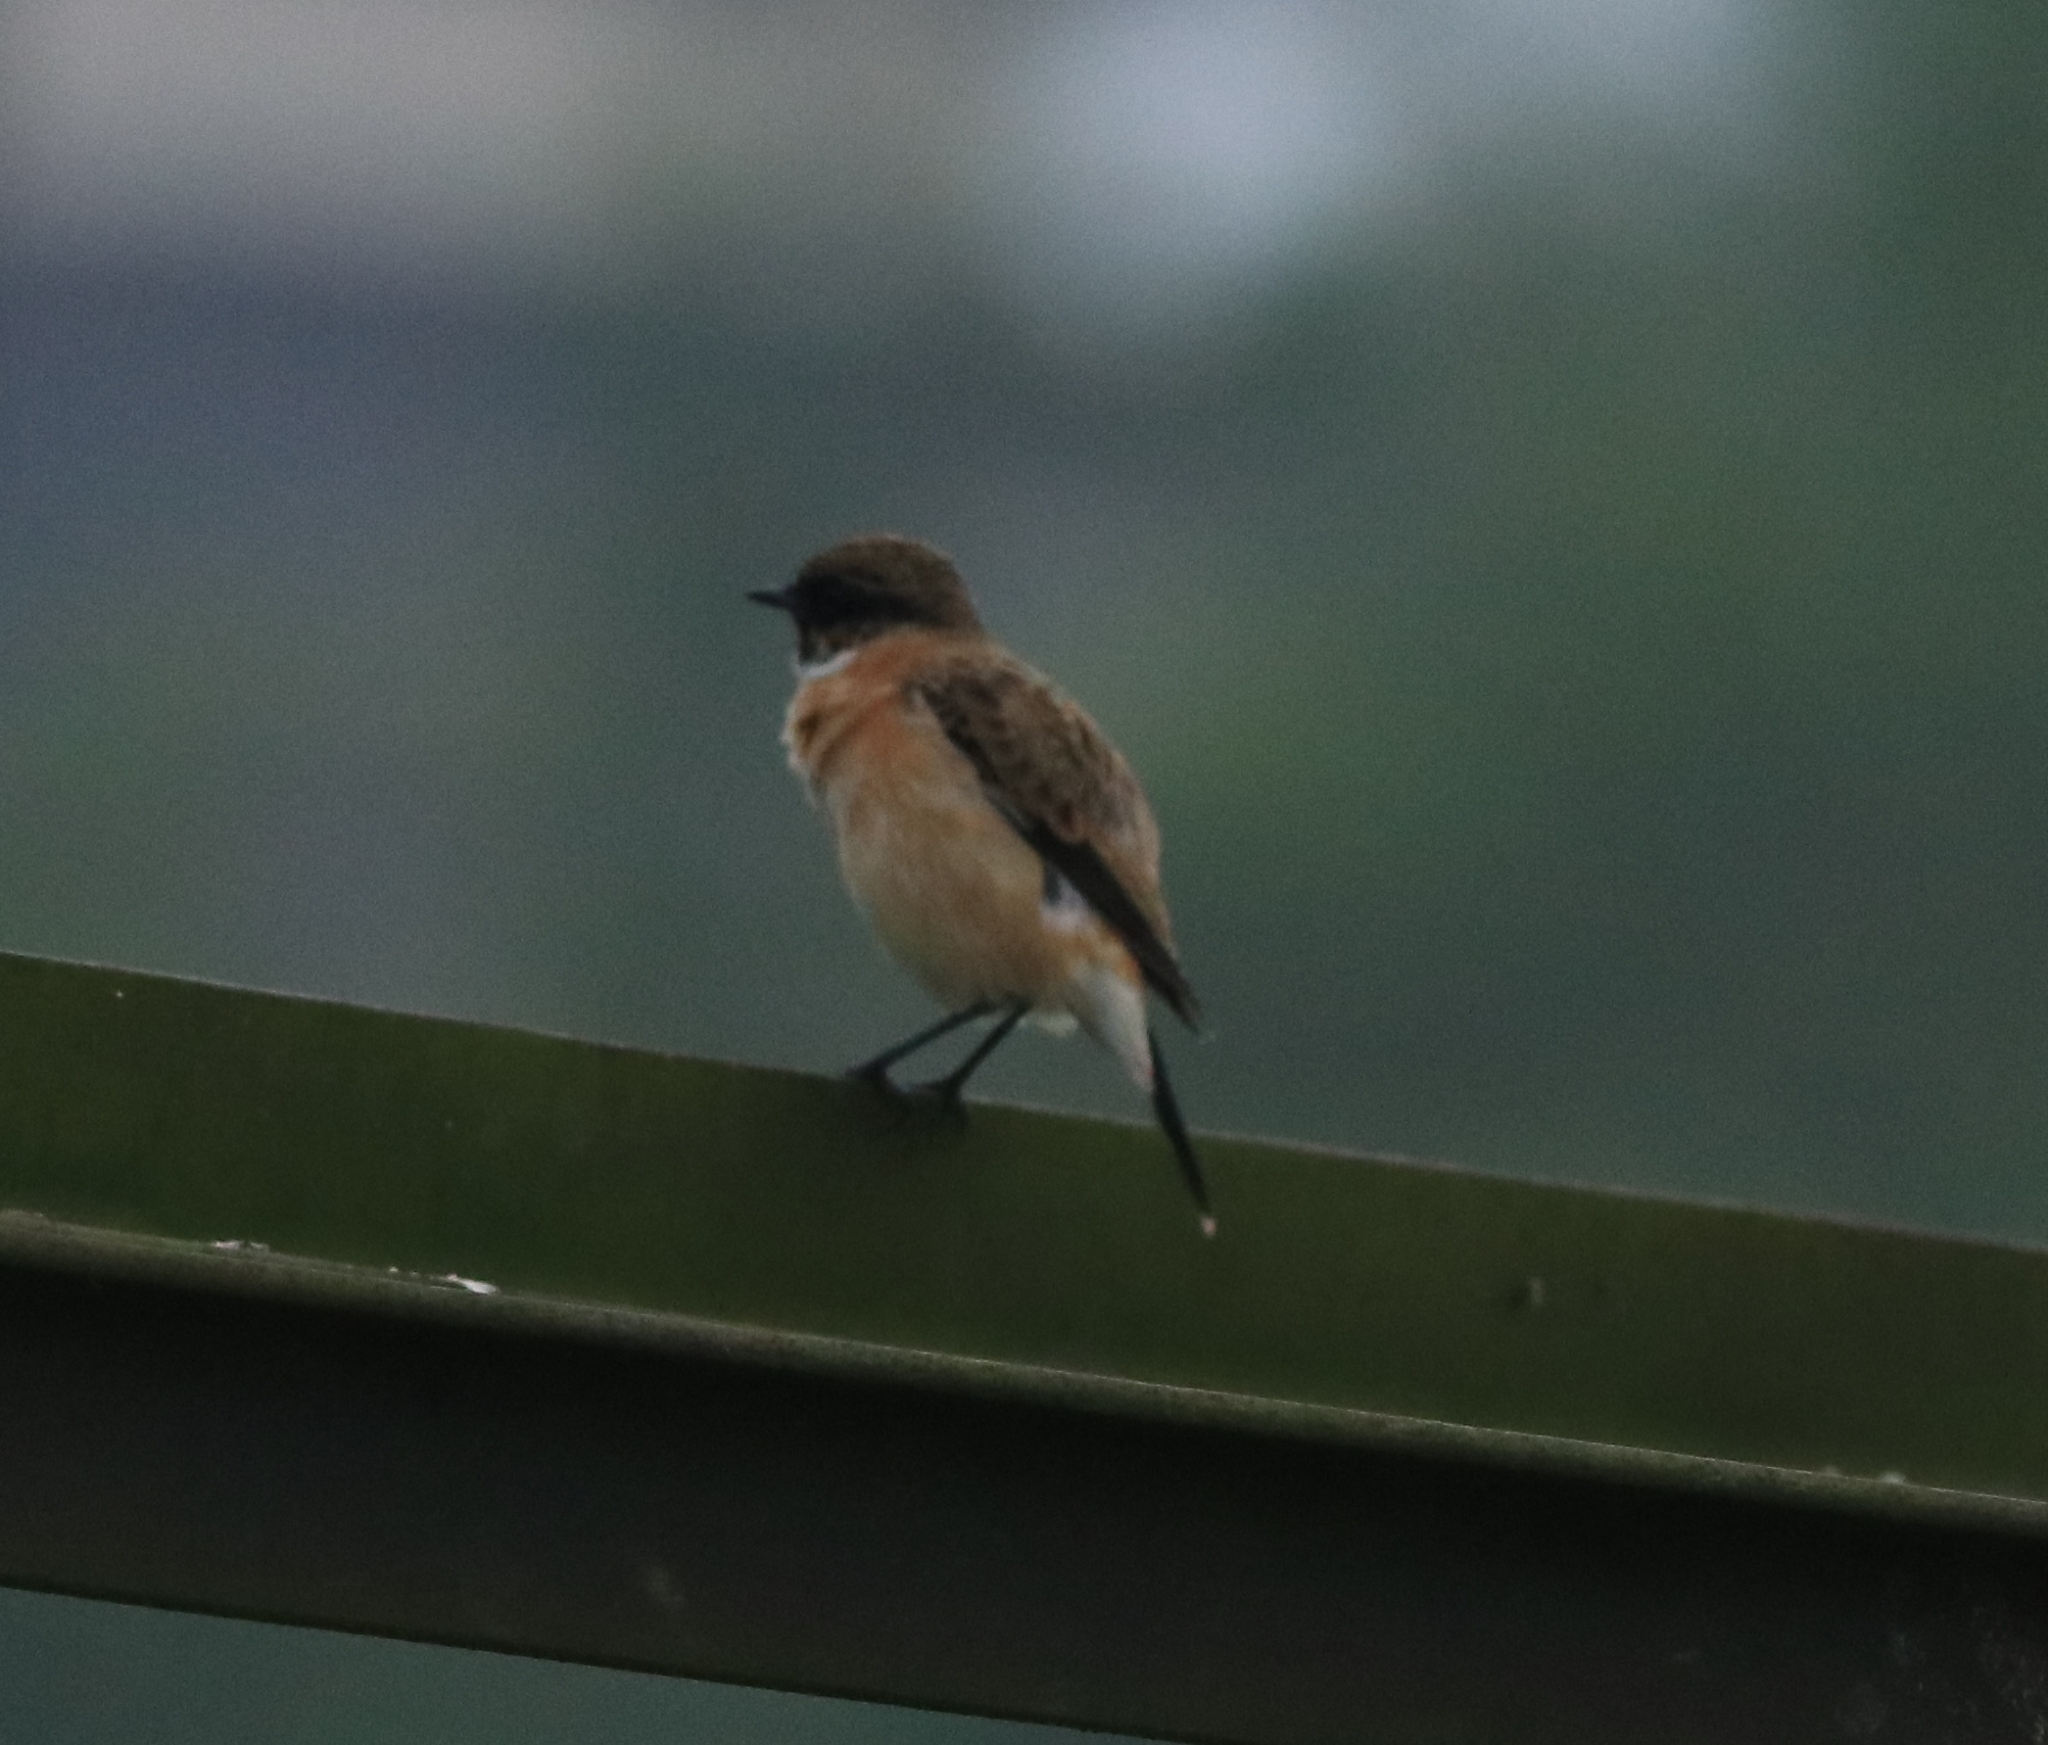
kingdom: Animalia
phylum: Chordata
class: Aves
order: Passeriformes
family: Muscicapidae
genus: Saxicola
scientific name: Saxicola maurus
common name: Siberian stonechat
